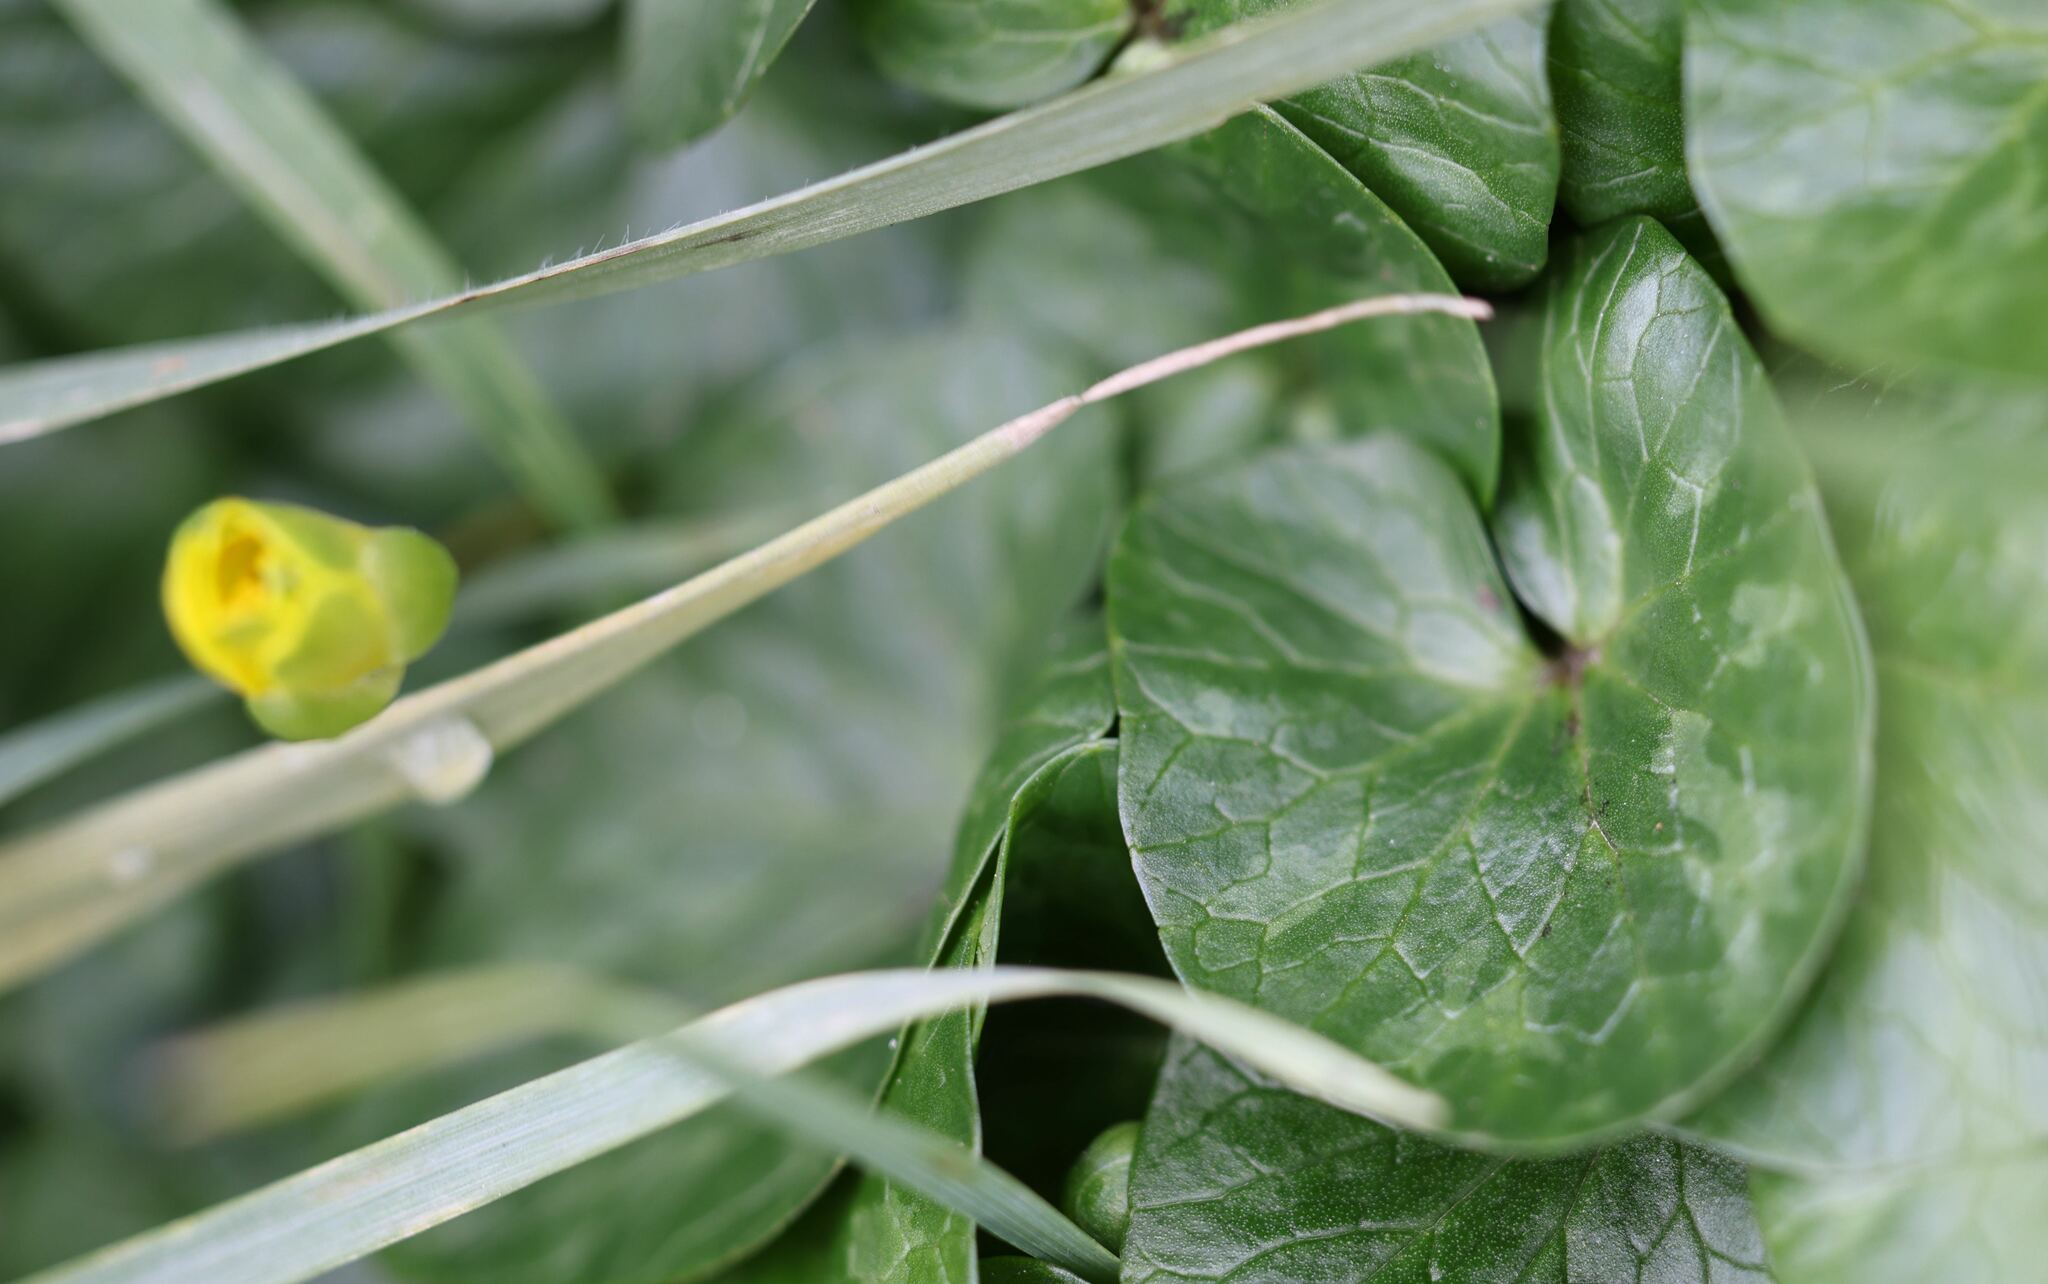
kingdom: Plantae
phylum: Tracheophyta
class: Magnoliopsida
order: Ranunculales
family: Ranunculaceae
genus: Ficaria
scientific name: Ficaria verna
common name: Lesser celandine
